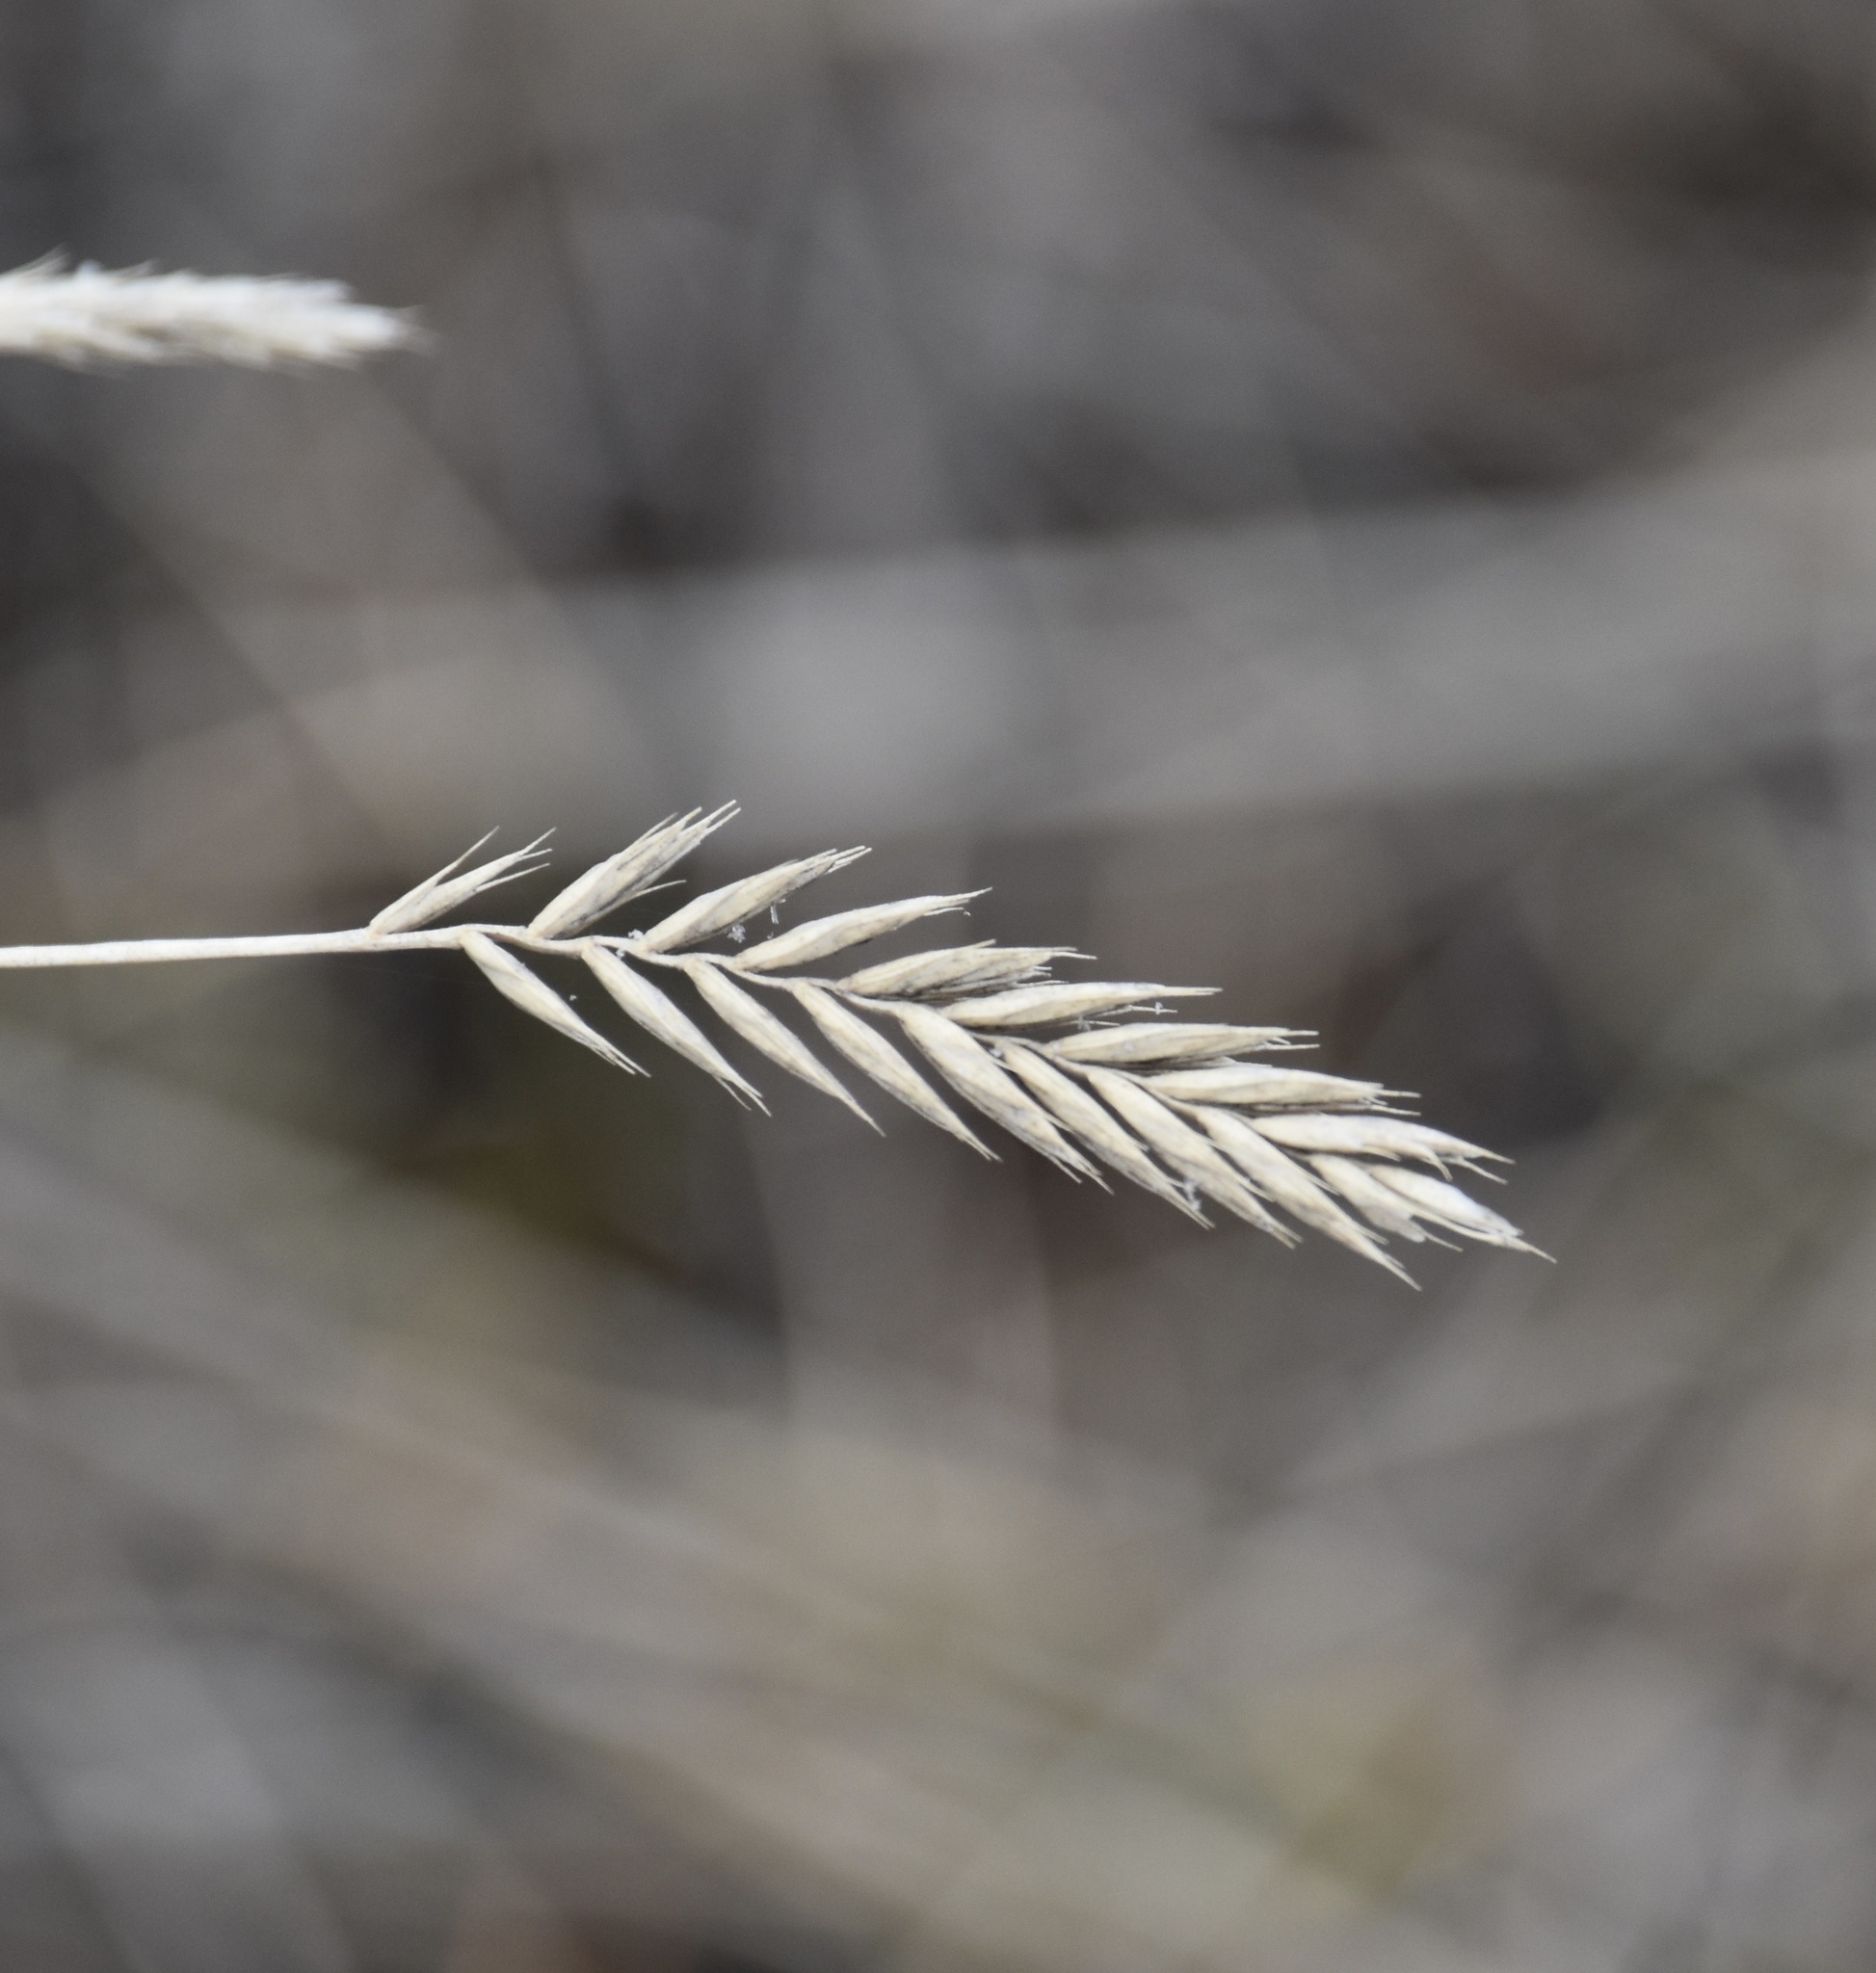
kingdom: Plantae
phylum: Tracheophyta
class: Liliopsida
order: Poales
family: Poaceae
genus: Agropyron
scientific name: Agropyron cristatum
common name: Crested wheatgrass
